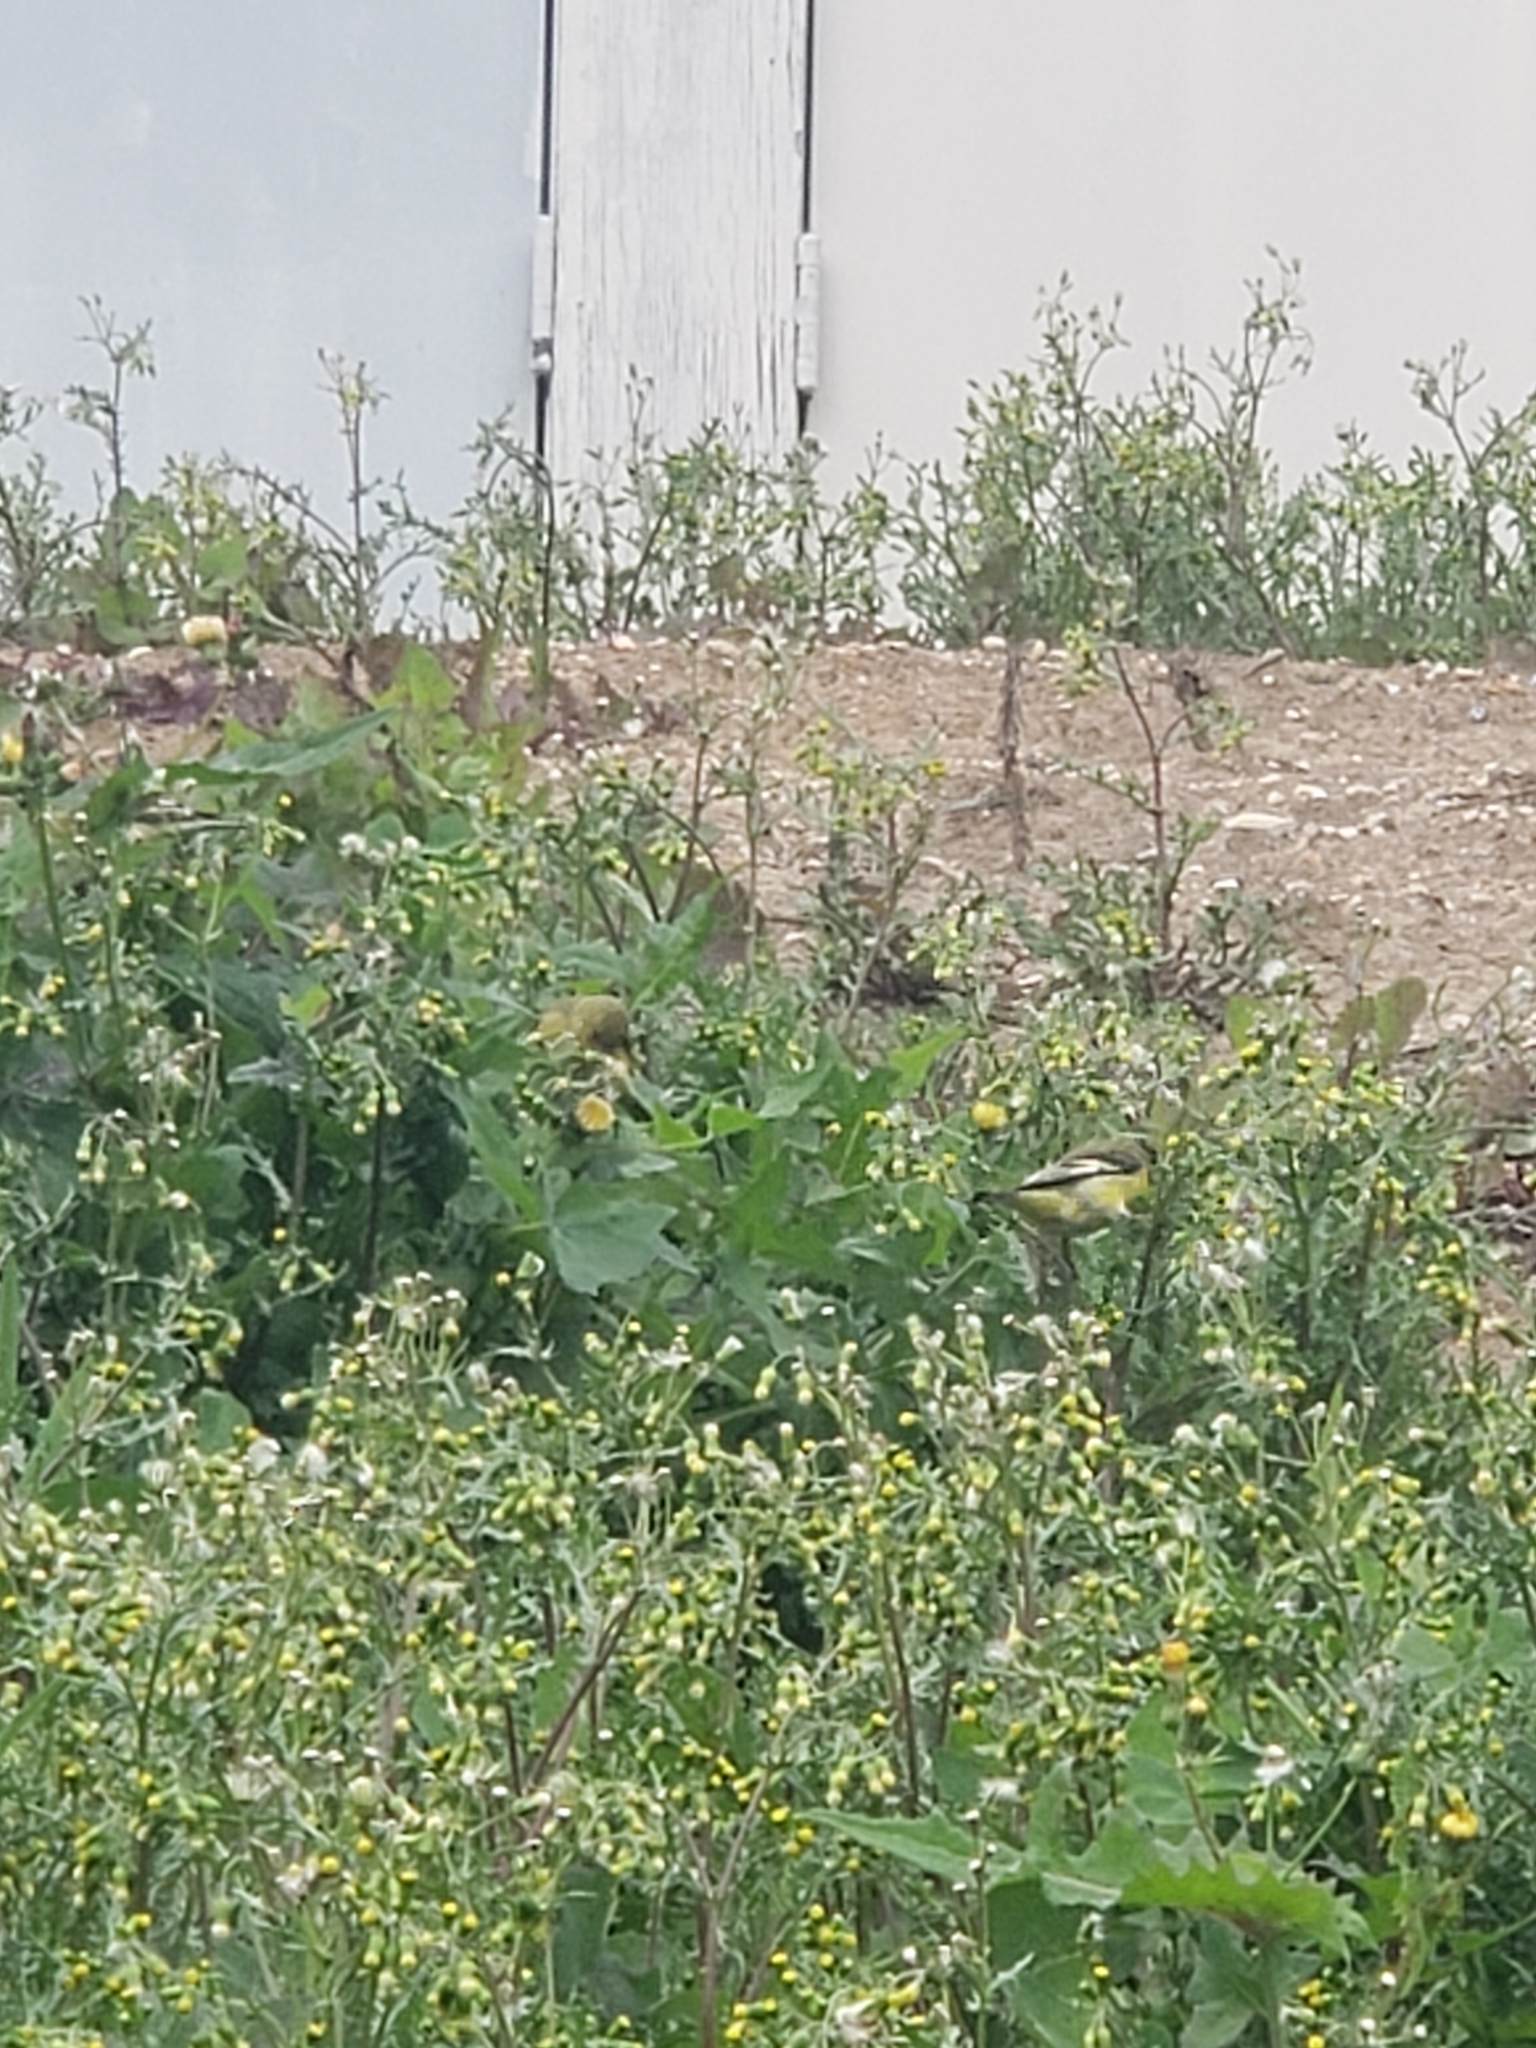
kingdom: Animalia
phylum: Chordata
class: Aves
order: Passeriformes
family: Fringillidae
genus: Spinus
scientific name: Spinus psaltria
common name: Lesser goldfinch
